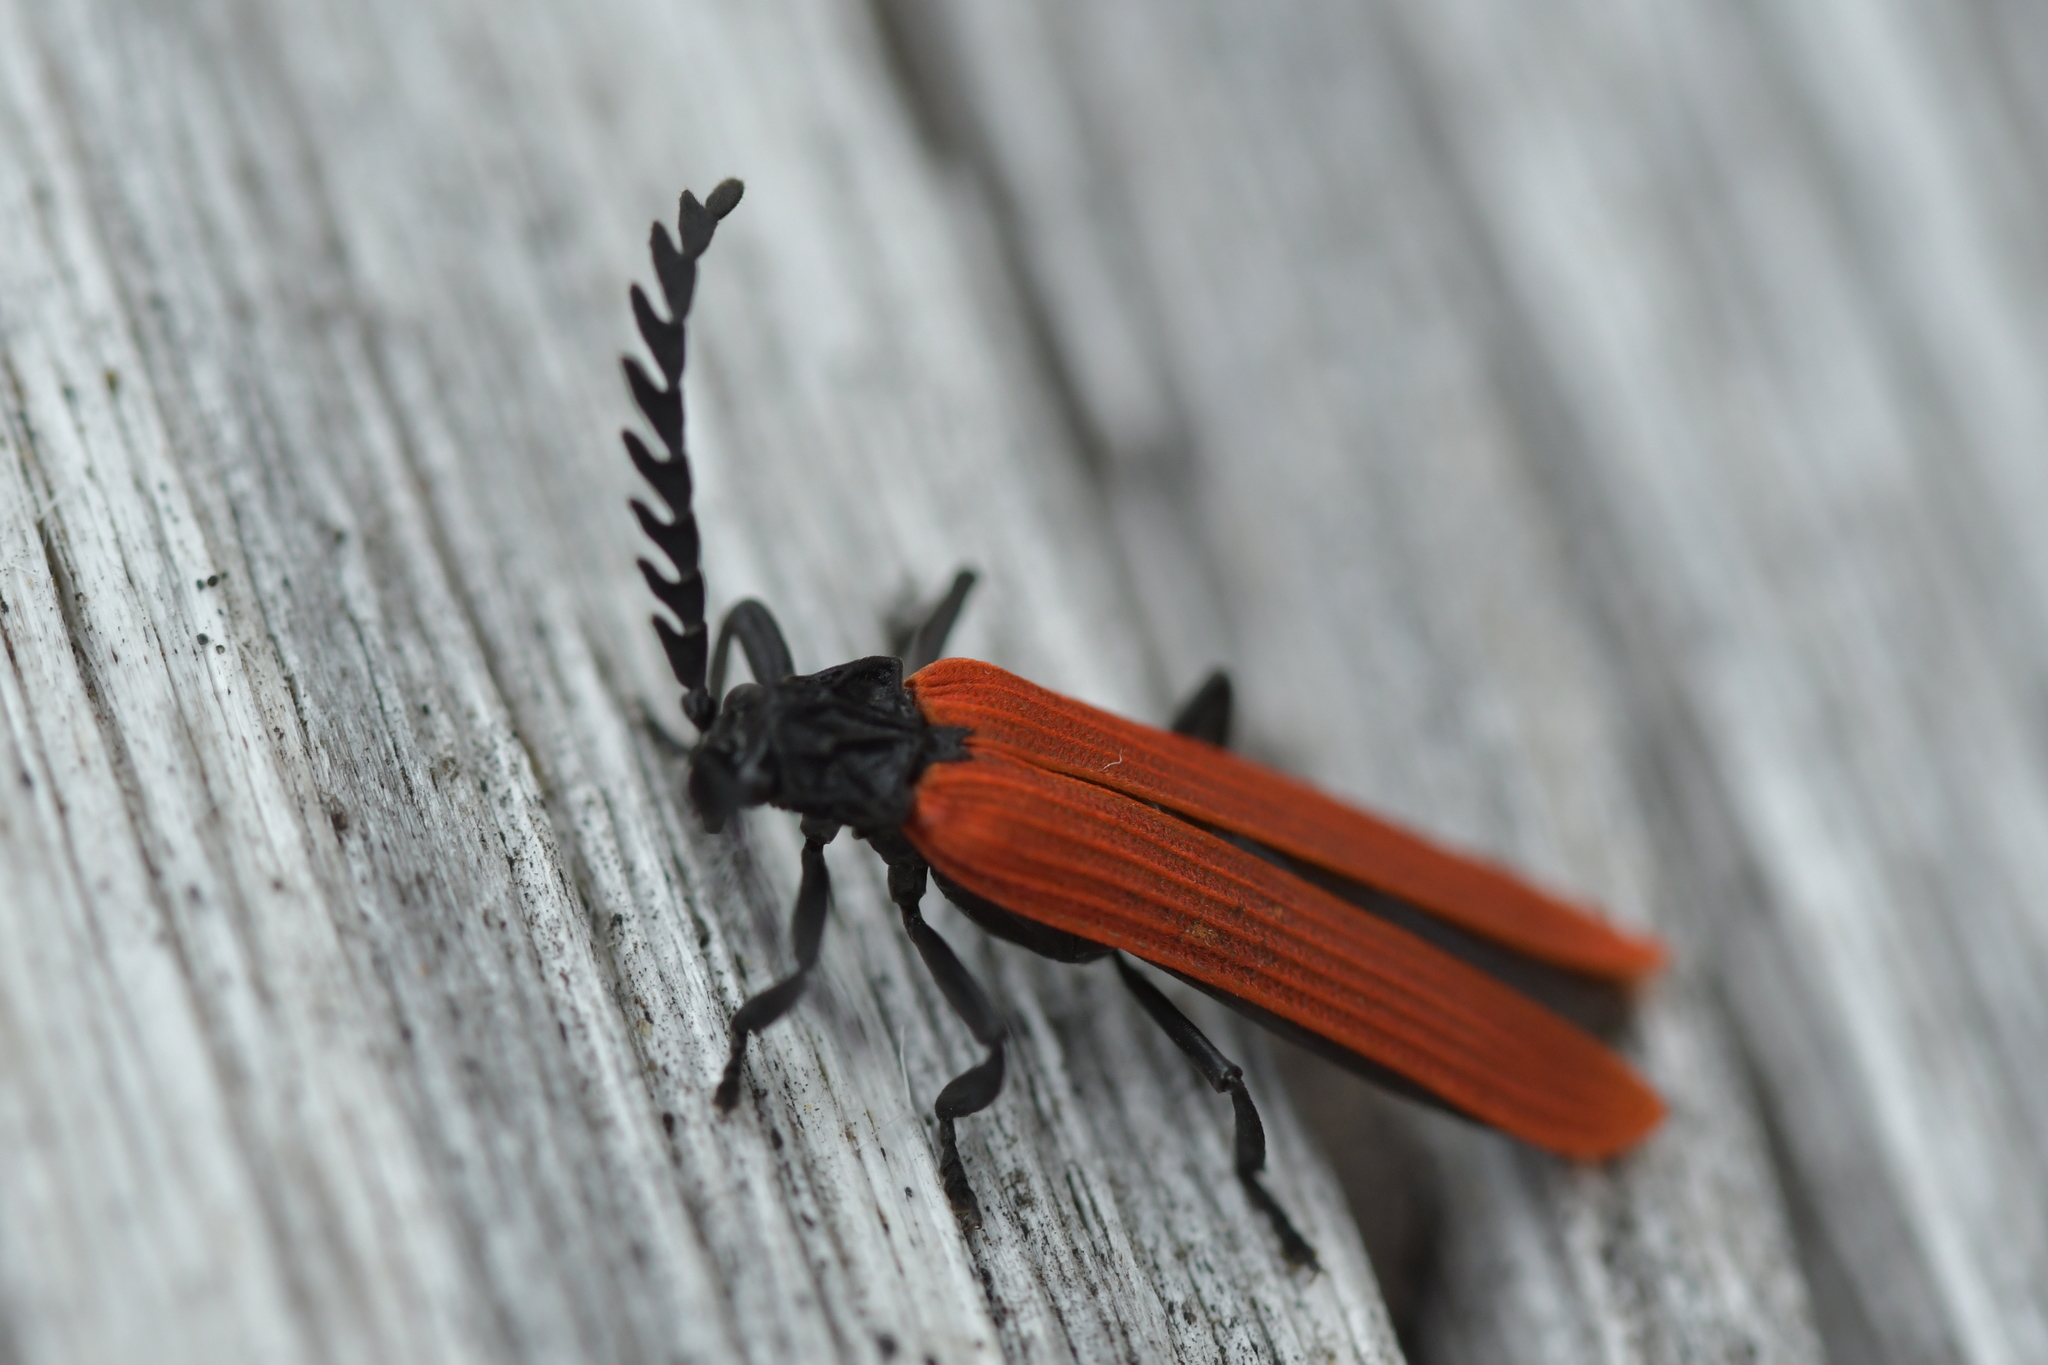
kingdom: Animalia
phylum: Arthropoda
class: Insecta
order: Coleoptera
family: Lycidae
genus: Porrostoma
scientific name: Porrostoma rufipenne
